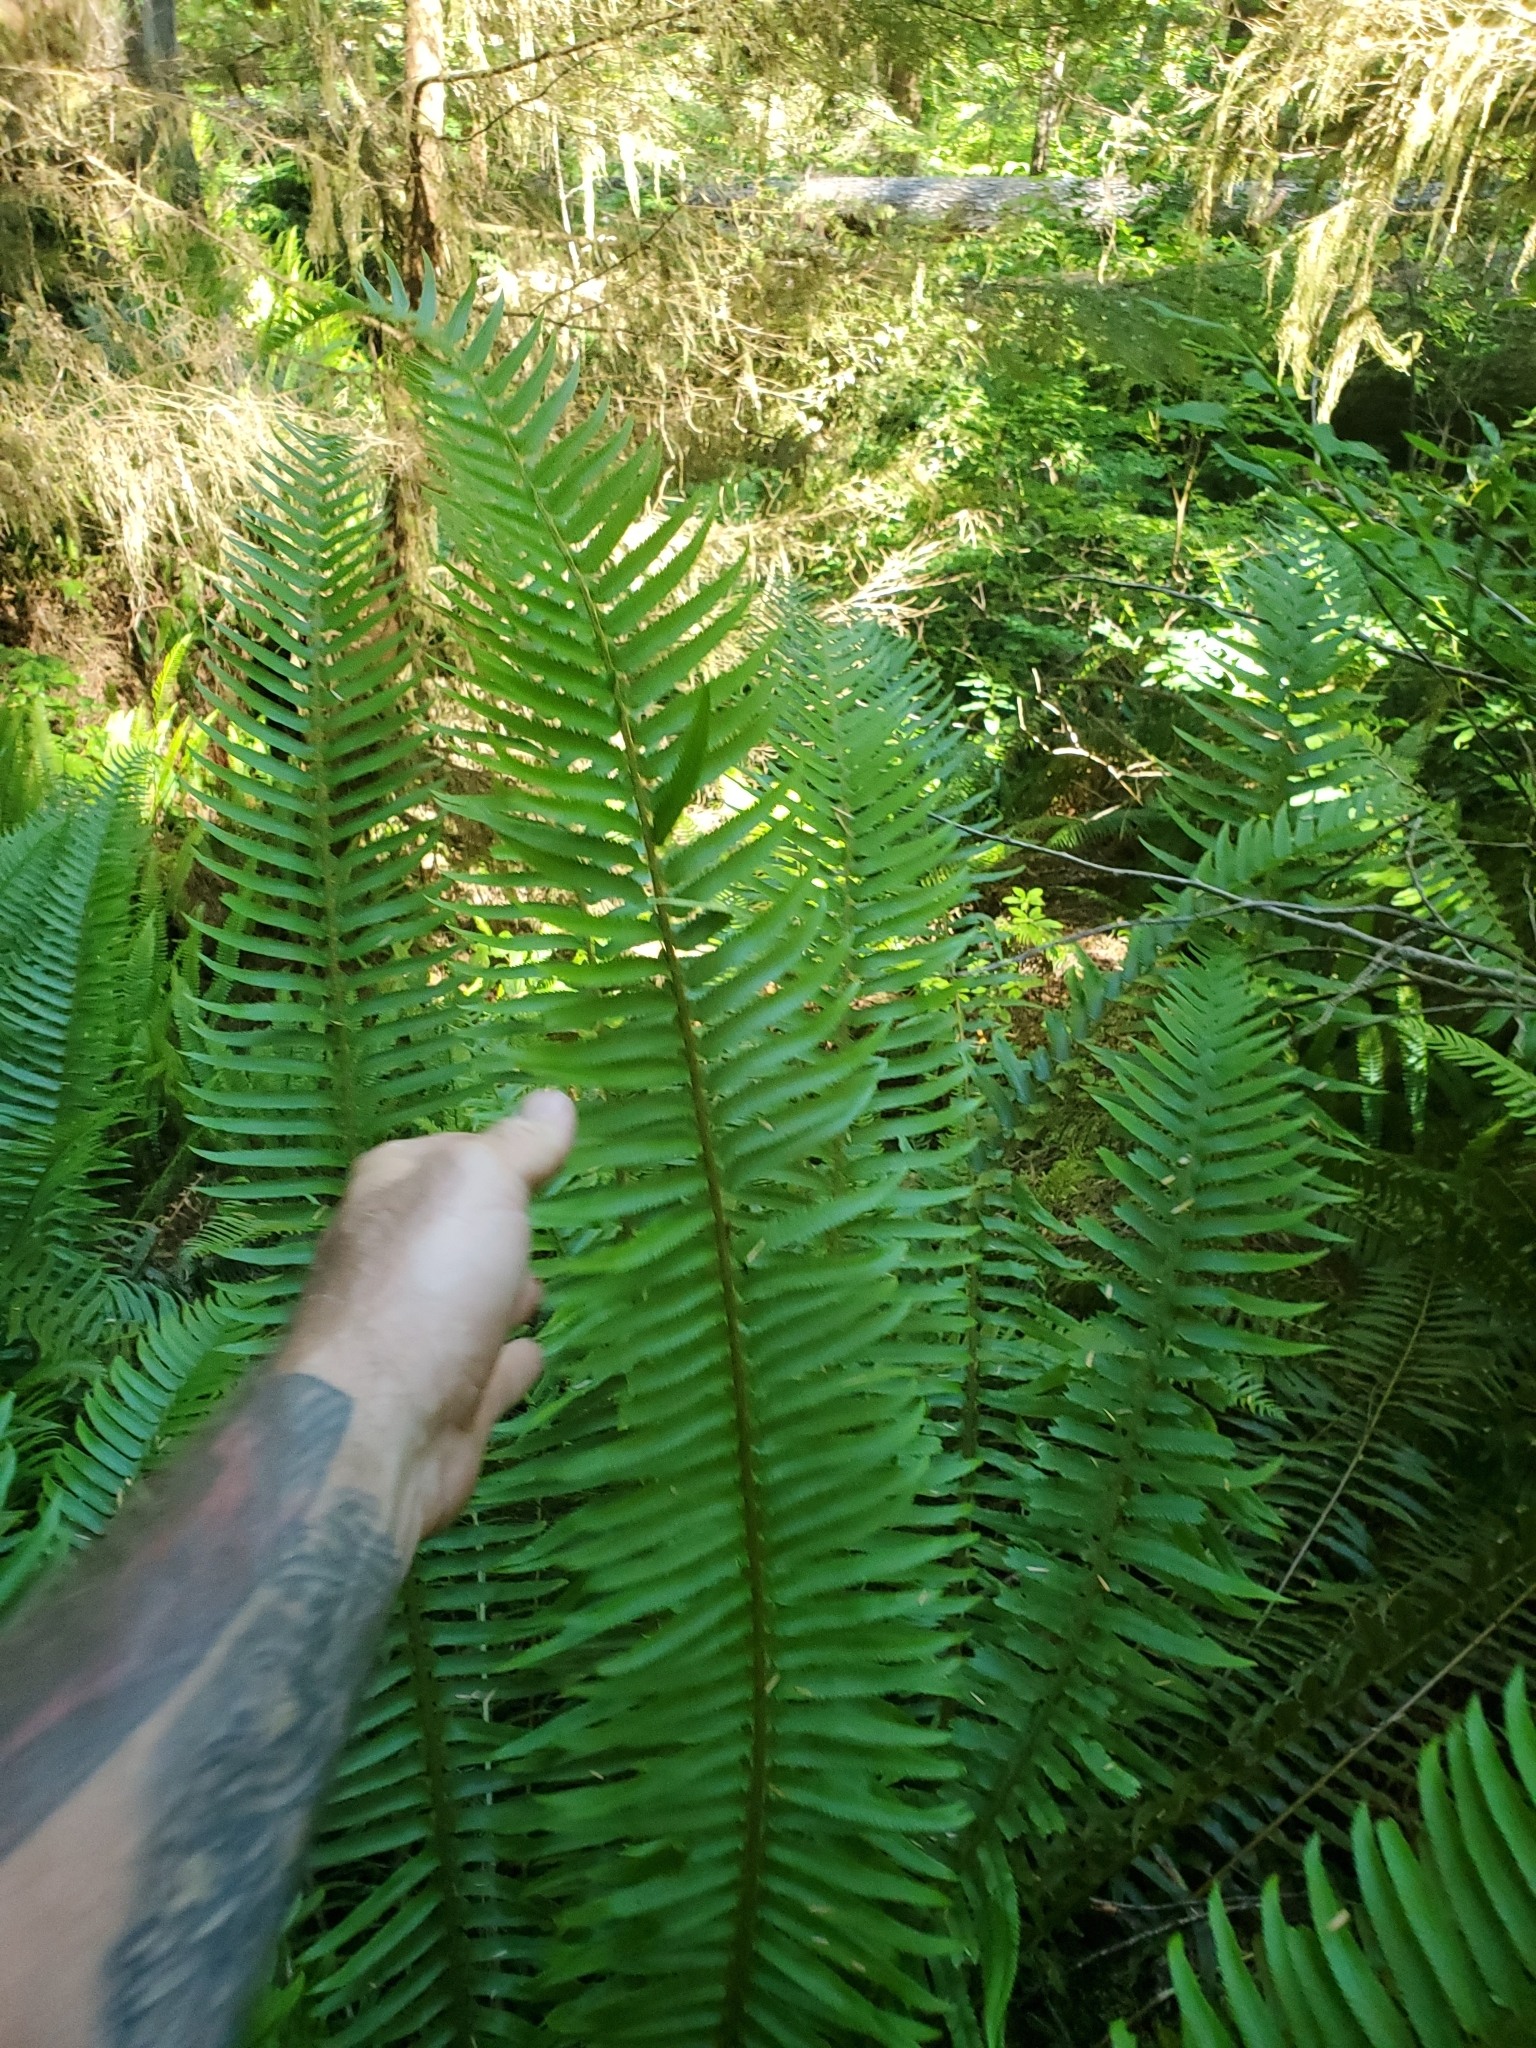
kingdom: Plantae
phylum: Tracheophyta
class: Polypodiopsida
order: Polypodiales
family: Dryopteridaceae
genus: Polystichum
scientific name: Polystichum munitum
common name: Western sword-fern
